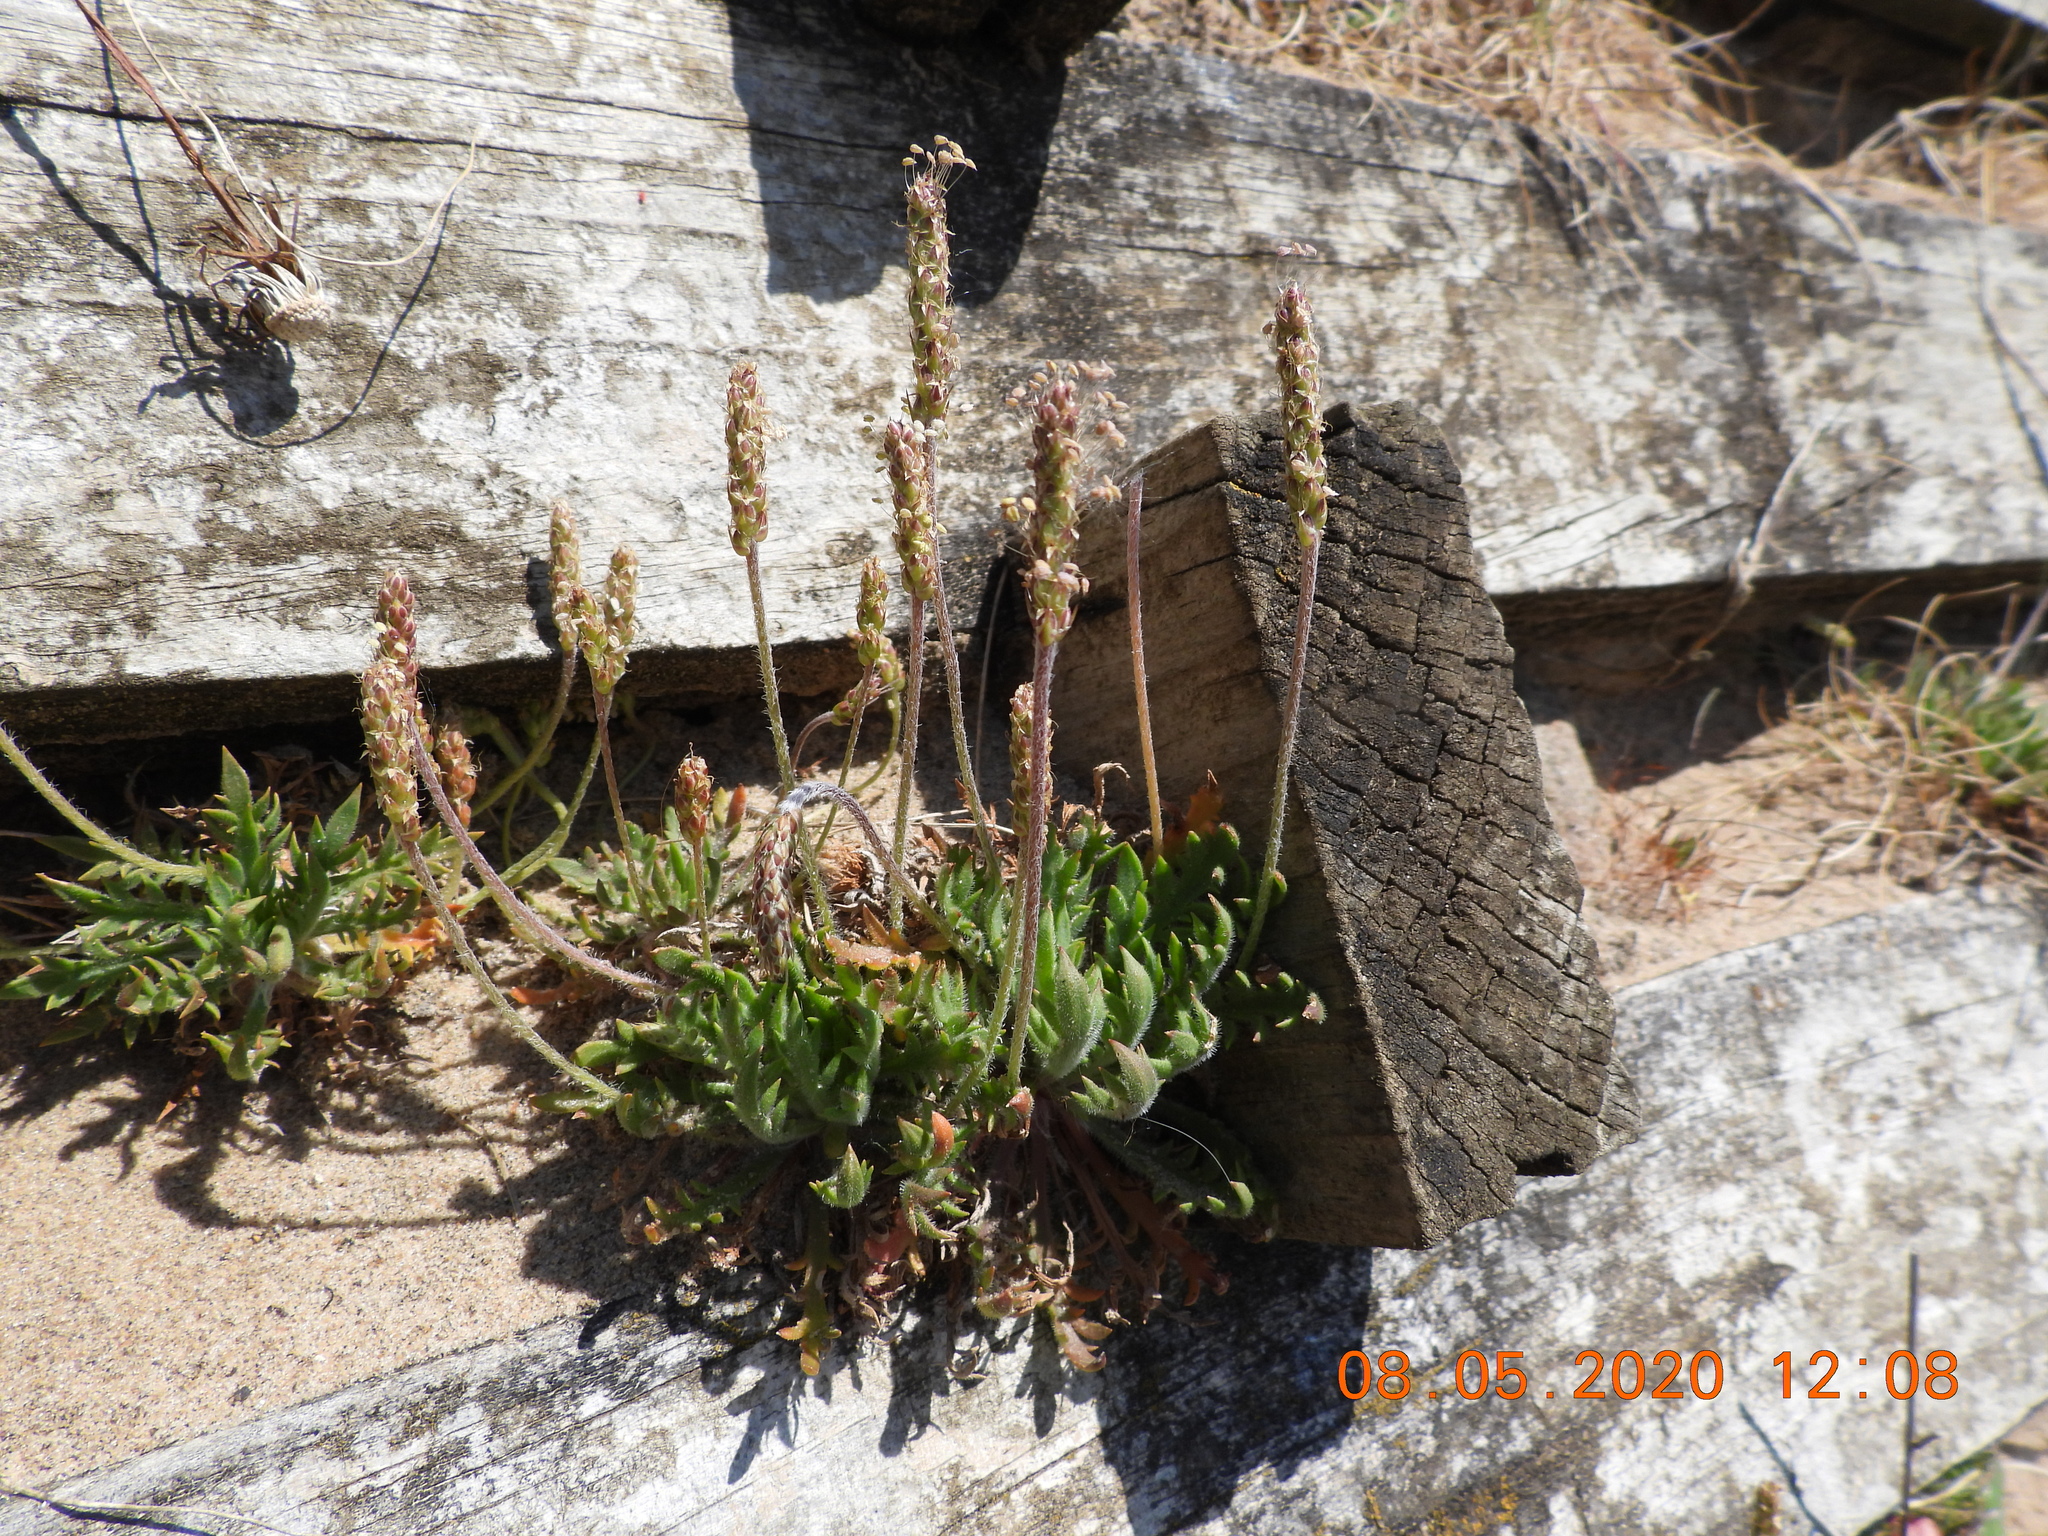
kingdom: Plantae
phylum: Tracheophyta
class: Magnoliopsida
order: Lamiales
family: Plantaginaceae
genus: Plantago
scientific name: Plantago coronopus
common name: Buck's-horn plantain
